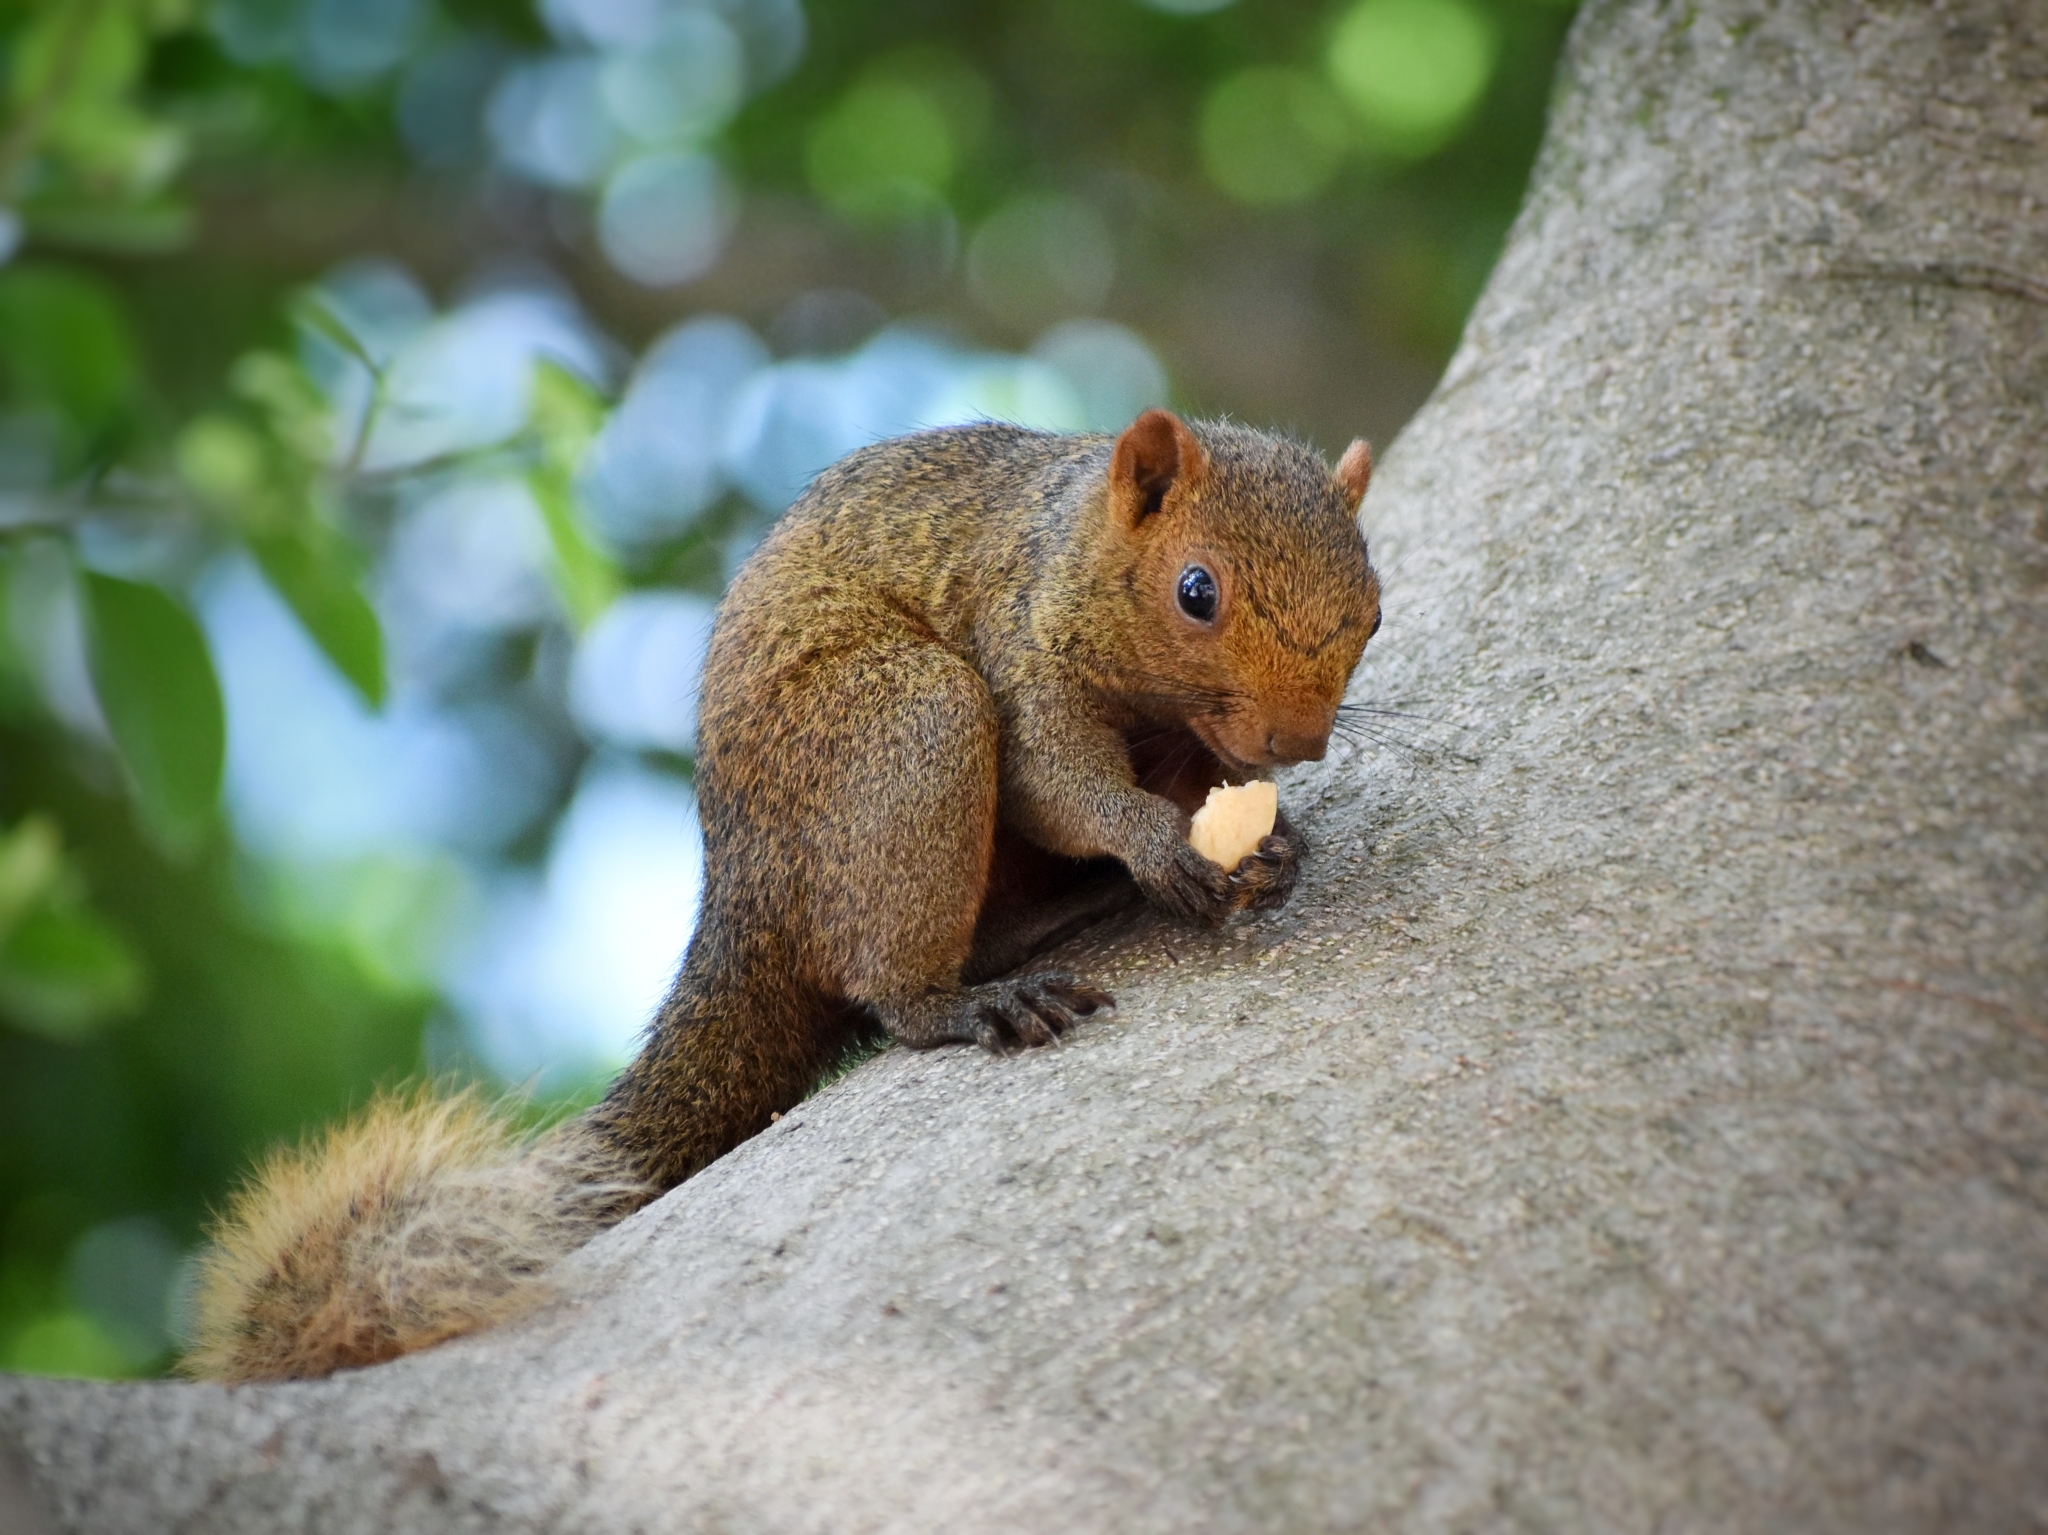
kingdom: Animalia
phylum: Chordata
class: Mammalia
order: Rodentia
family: Sciuridae
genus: Callosciurus
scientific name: Callosciurus erythraeus
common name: Pallas's squirrel
